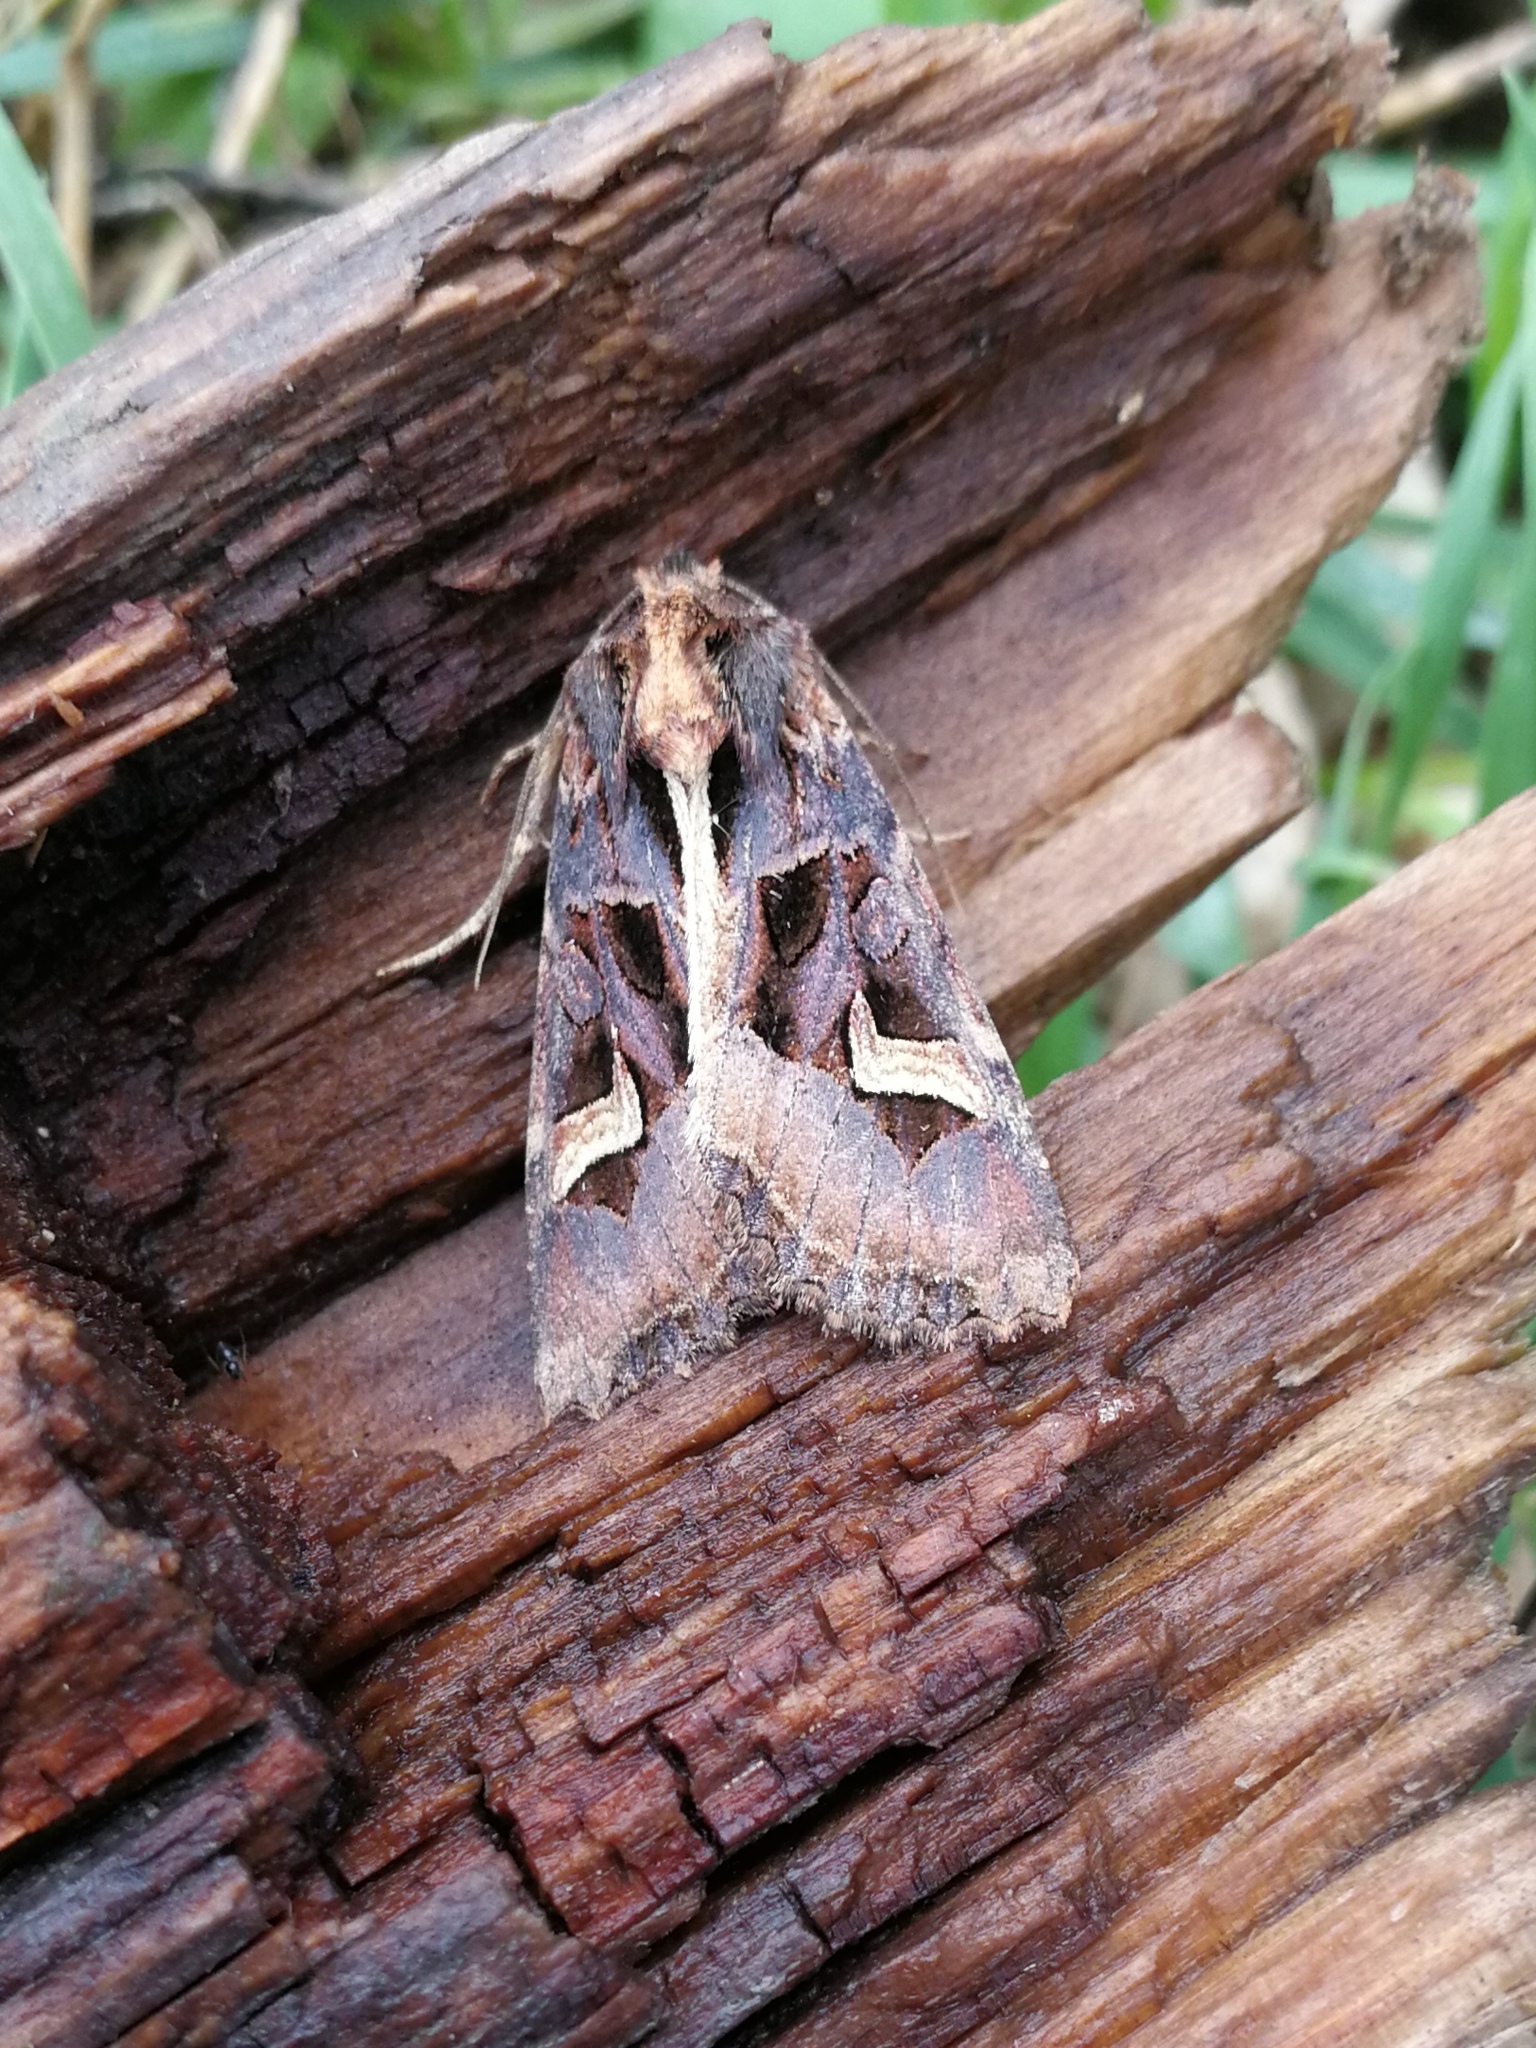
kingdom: Animalia
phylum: Arthropoda
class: Insecta
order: Lepidoptera
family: Noctuidae
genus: Trigonophora
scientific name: Trigonophora flammea
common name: Flame brocade
